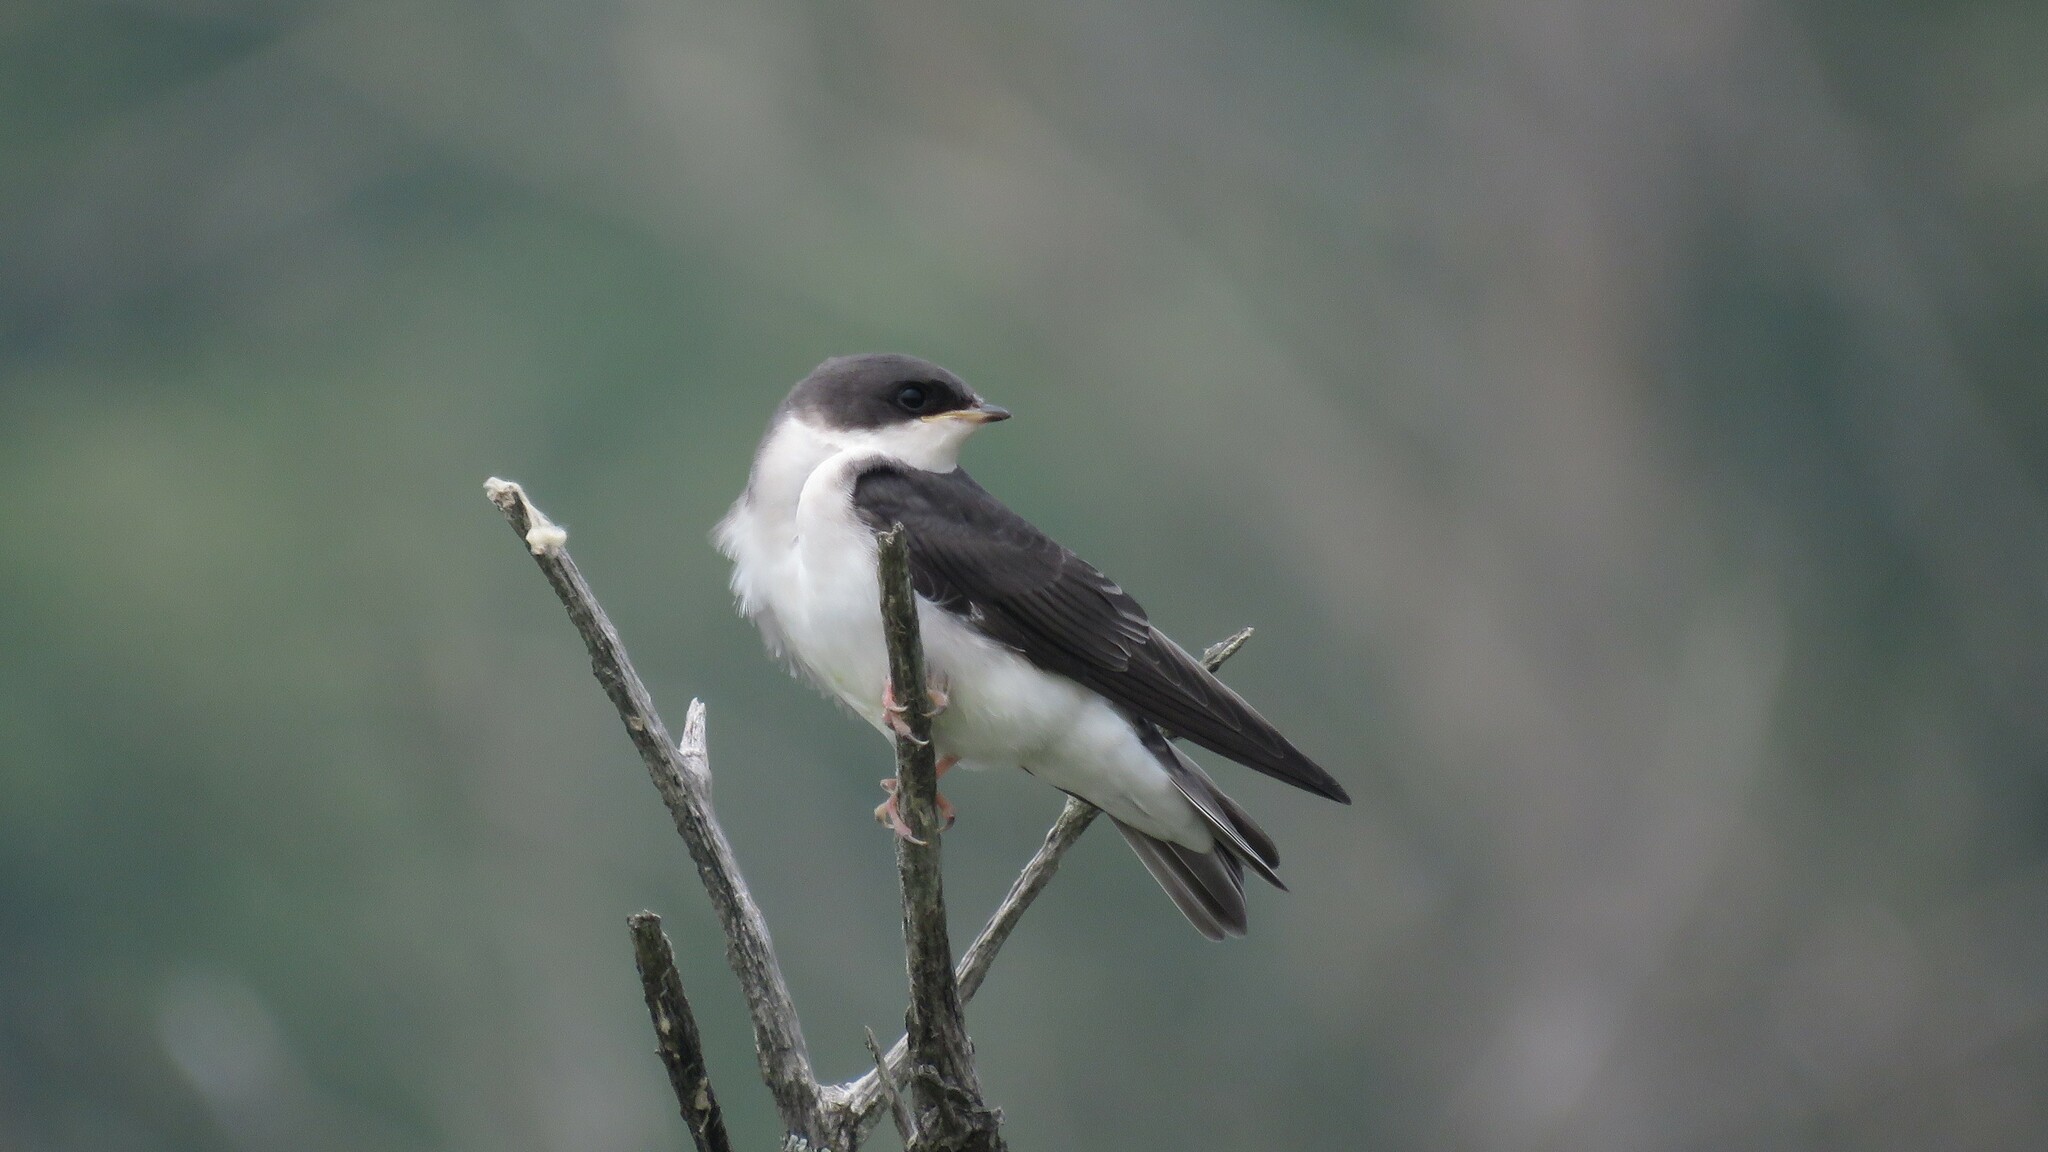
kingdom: Animalia
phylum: Chordata
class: Aves
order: Passeriformes
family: Hirundinidae
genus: Tachycineta
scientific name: Tachycineta bicolor
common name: Tree swallow
